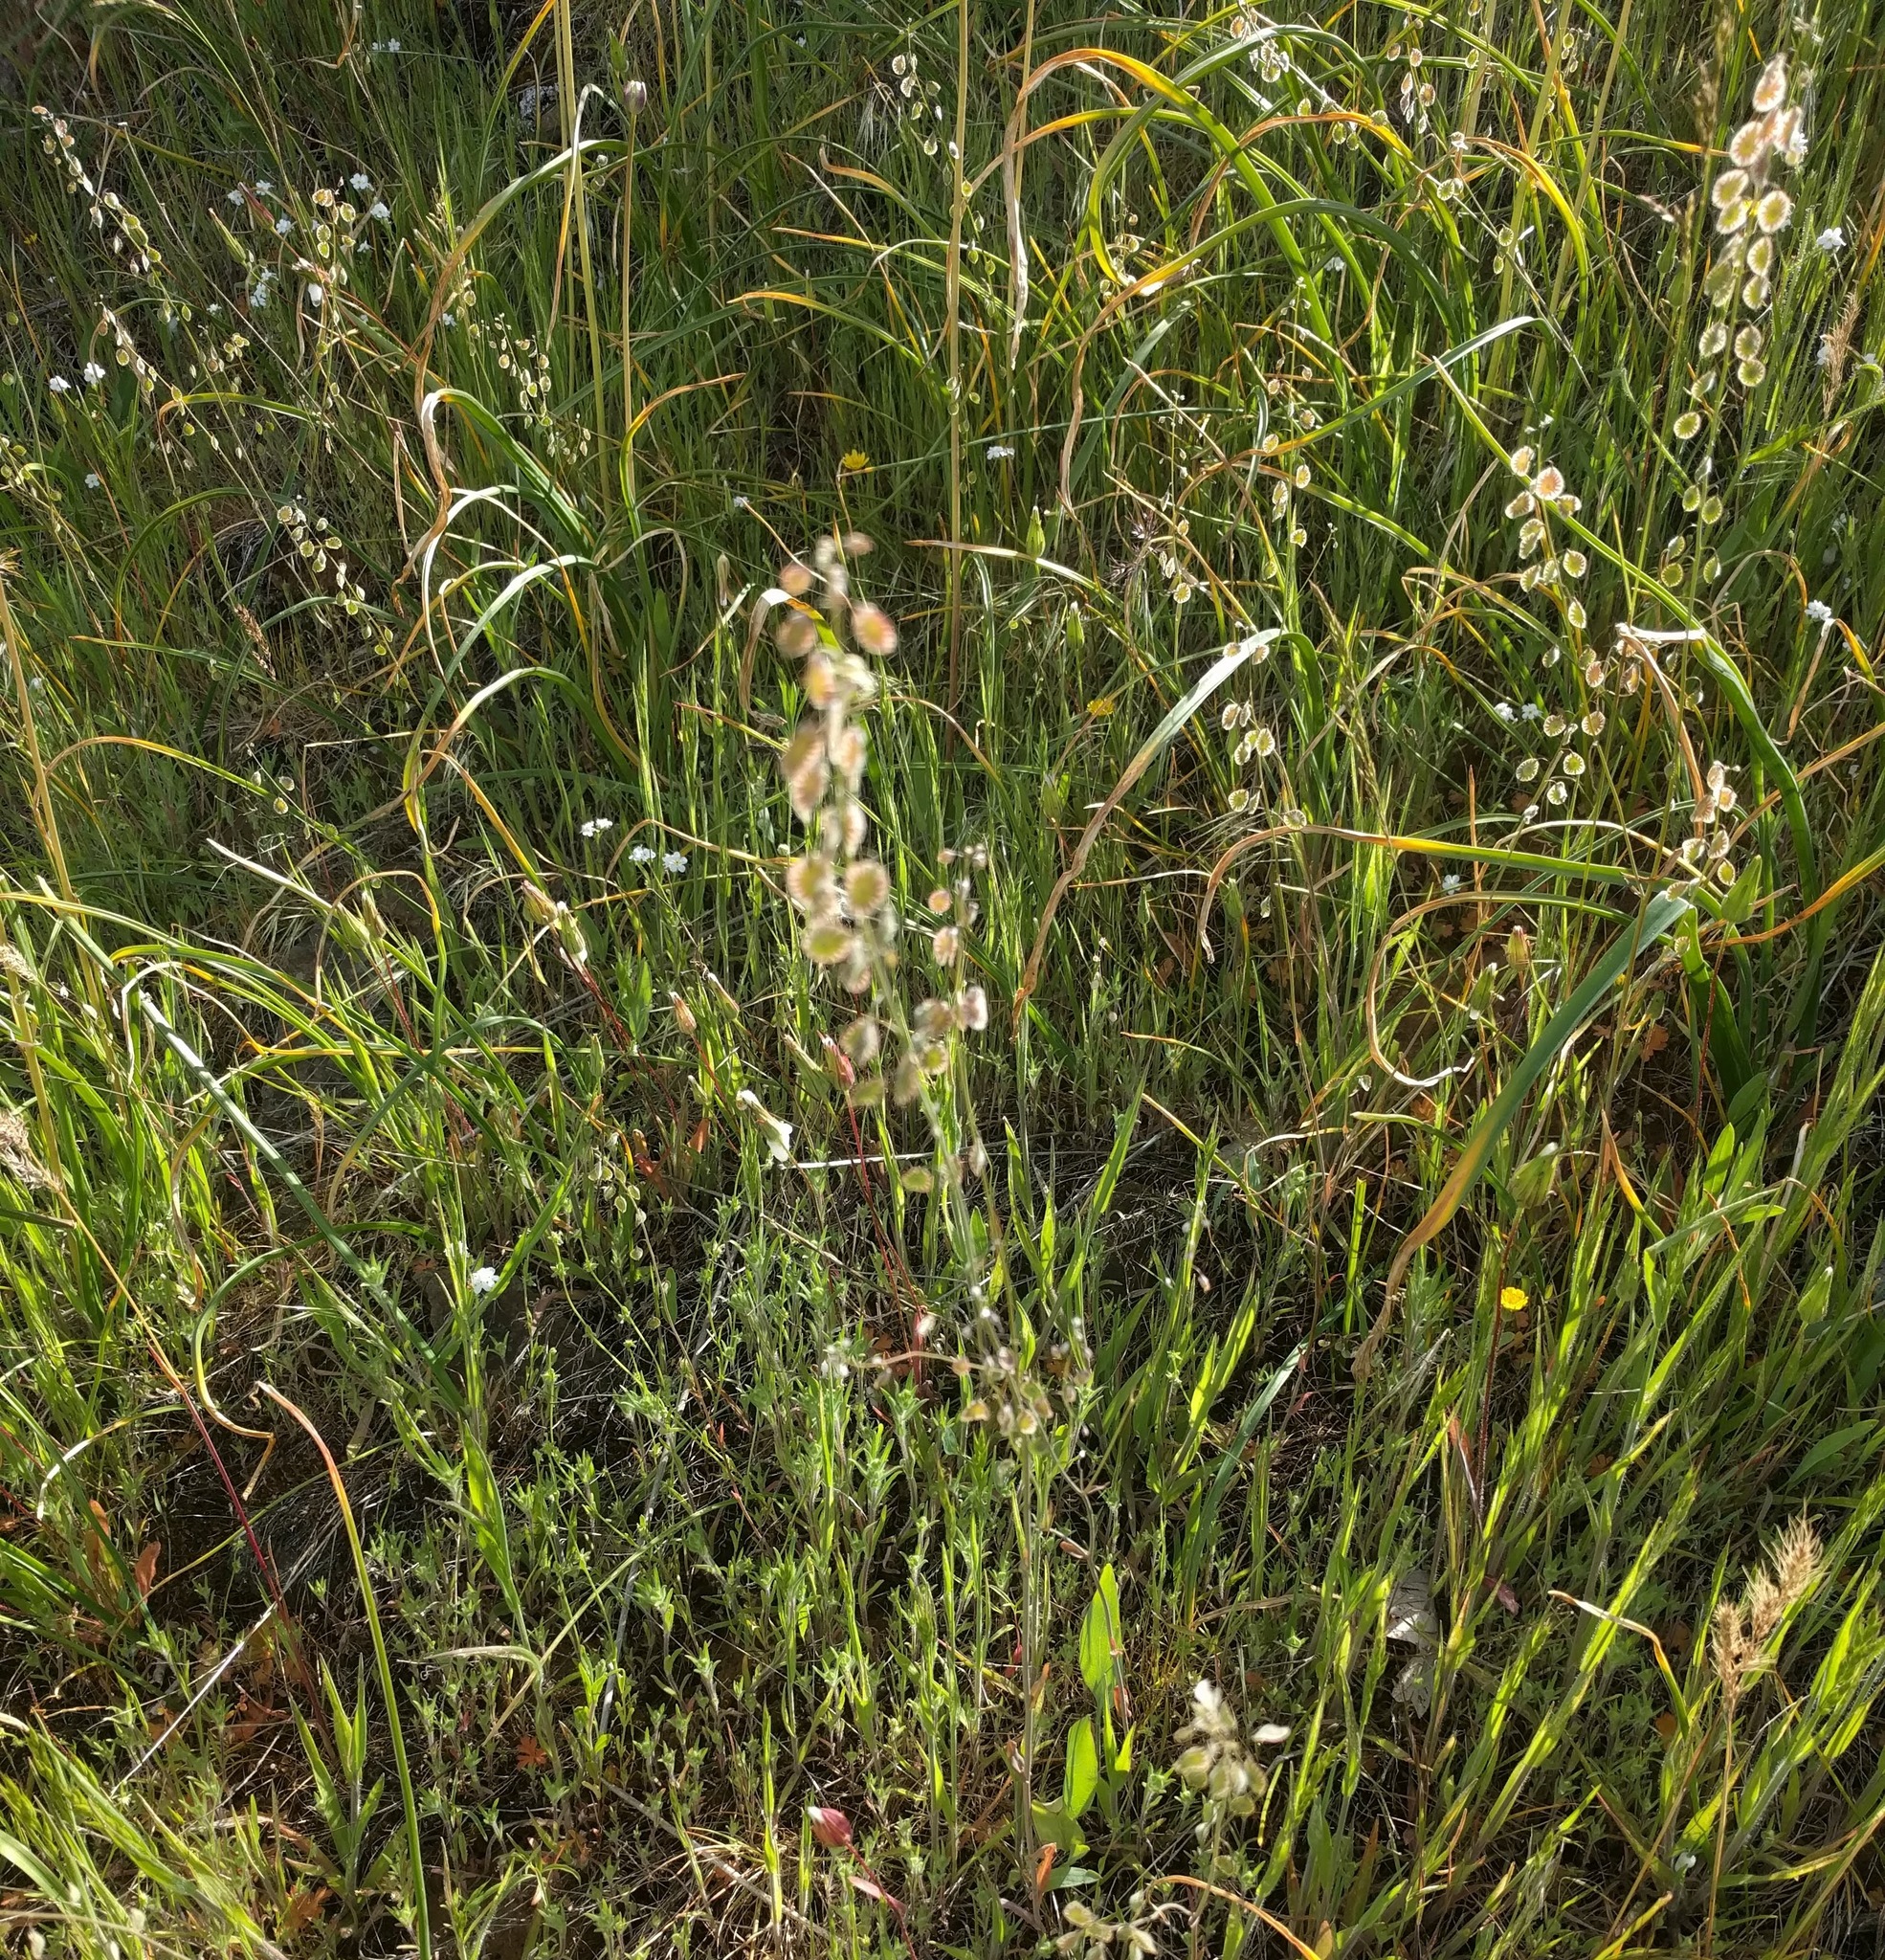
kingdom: Plantae
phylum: Tracheophyta
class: Magnoliopsida
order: Brassicales
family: Brassicaceae
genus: Thysanocarpus
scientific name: Thysanocarpus curvipes
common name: Sand fringepod
